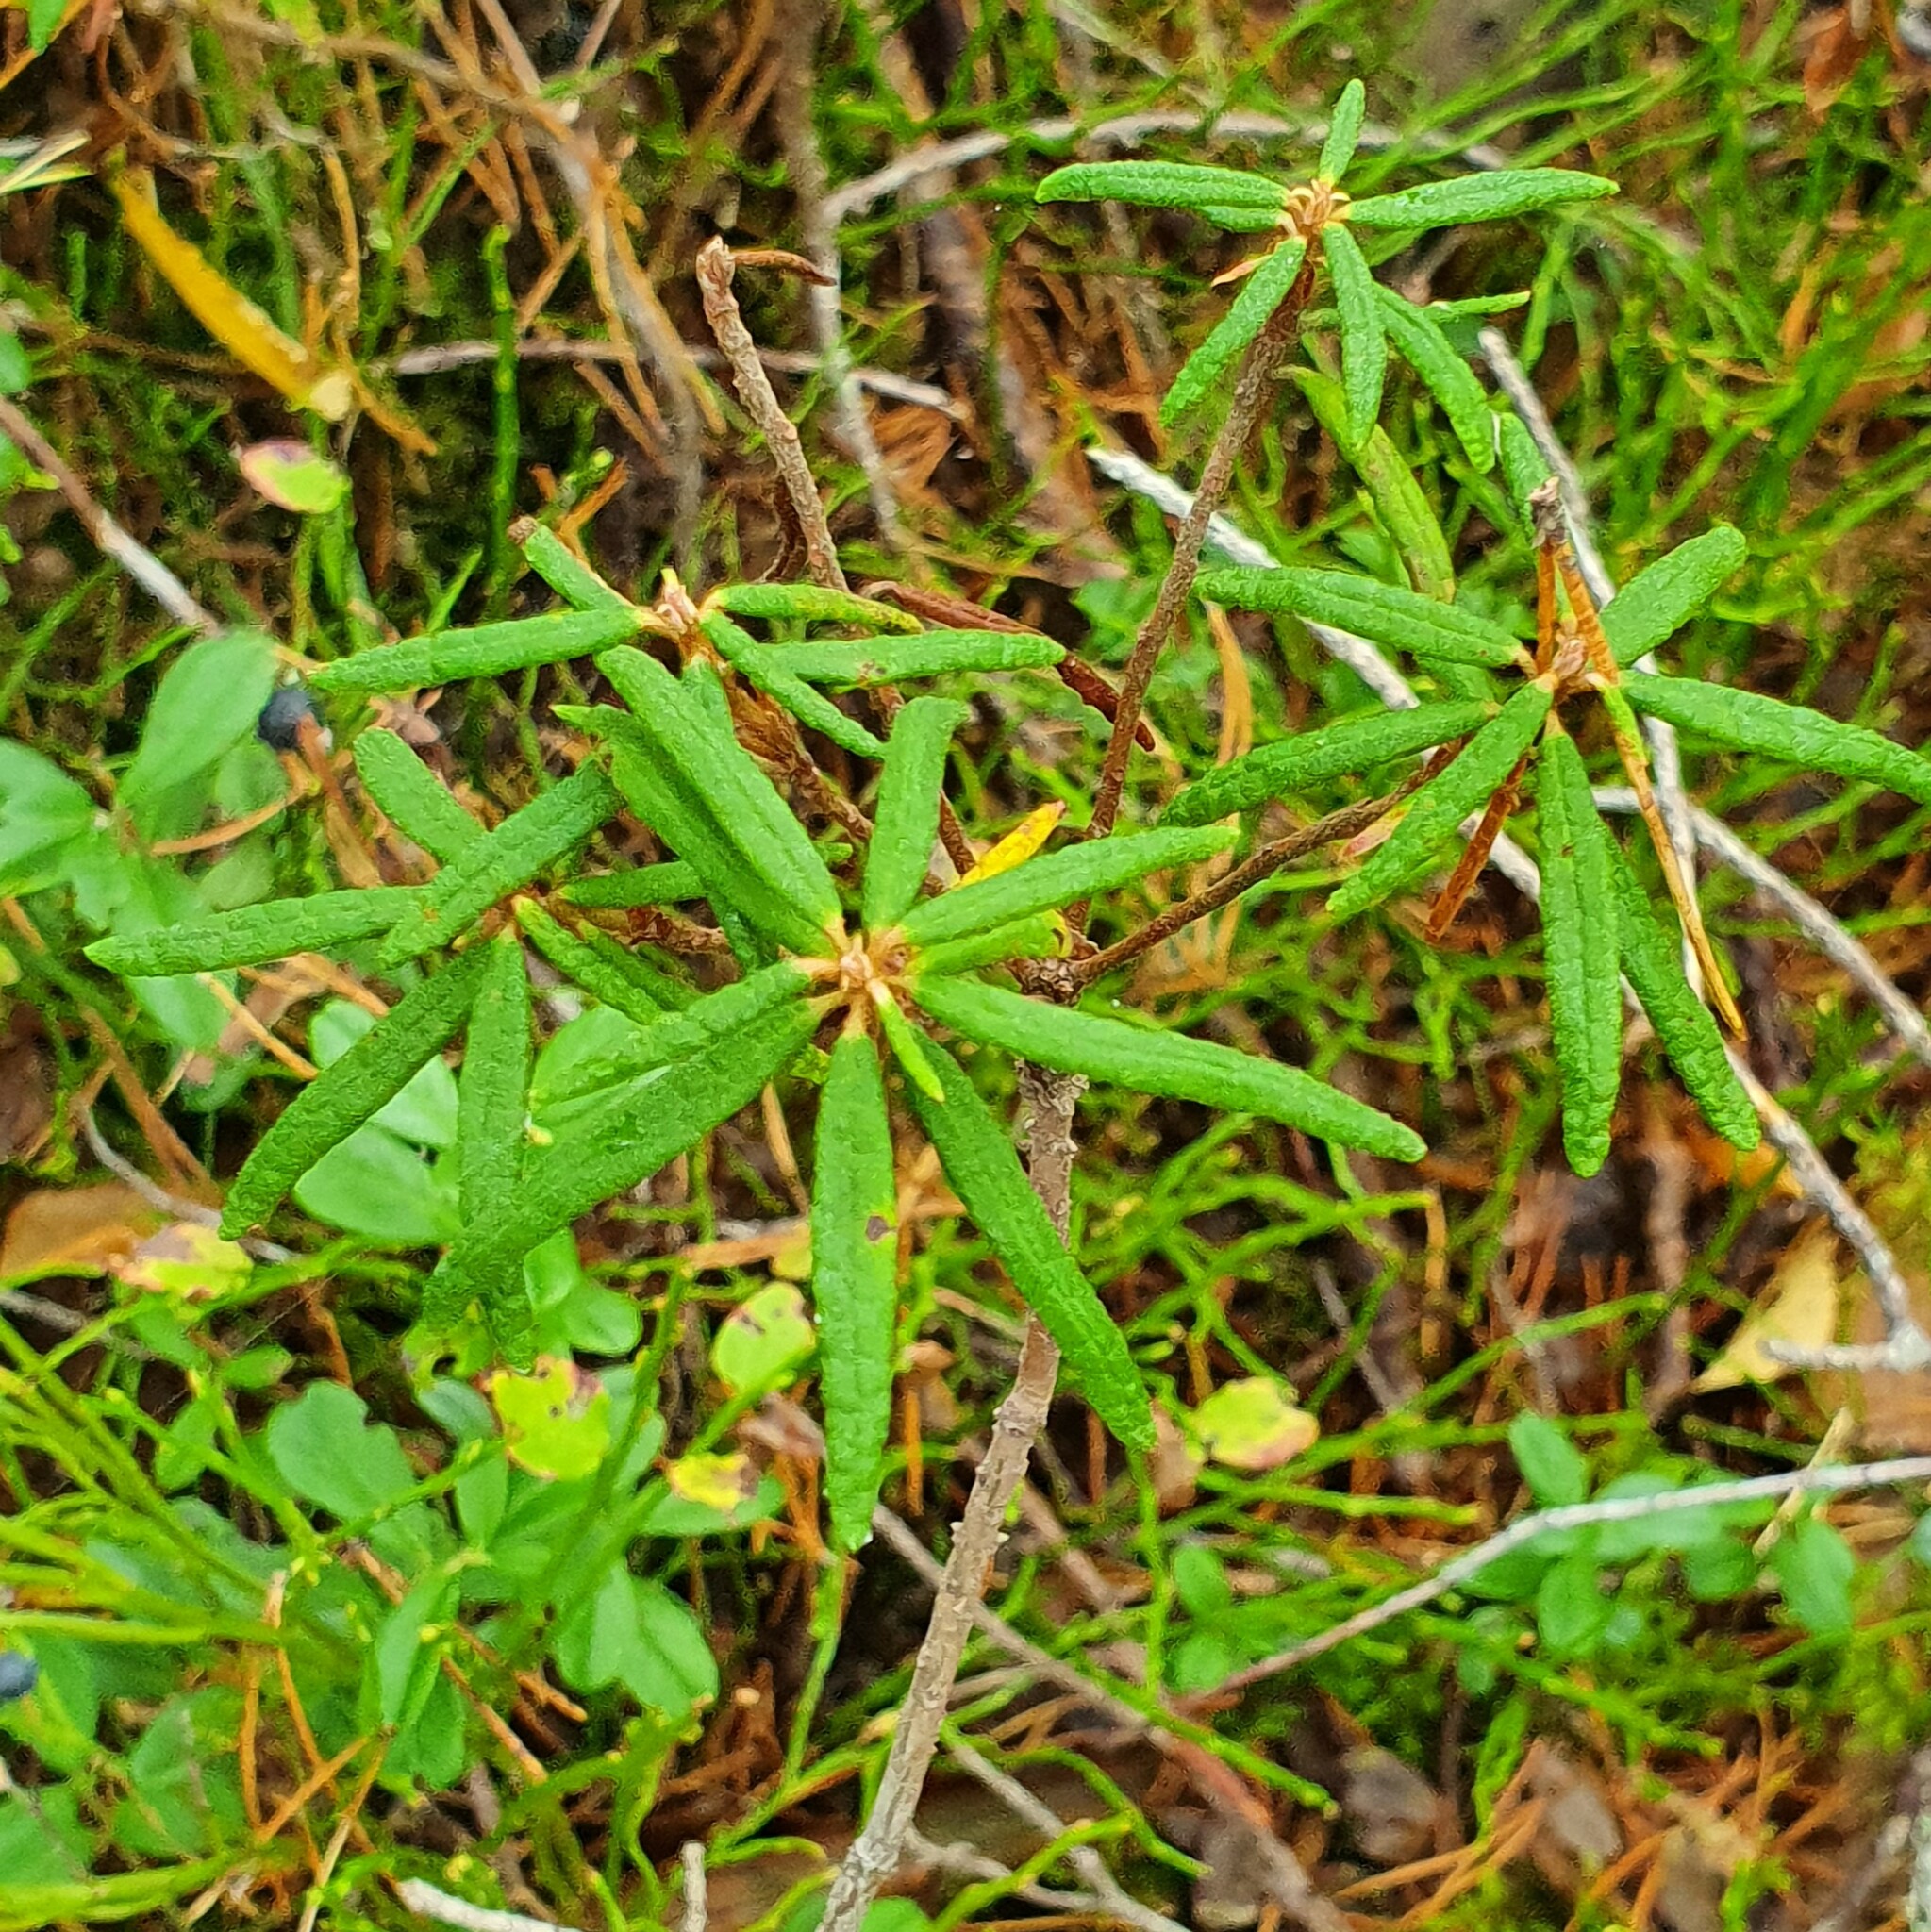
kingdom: Plantae
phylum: Tracheophyta
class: Magnoliopsida
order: Ericales
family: Ericaceae
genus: Rhododendron
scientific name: Rhododendron tomentosum
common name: Marsh labrador tea
